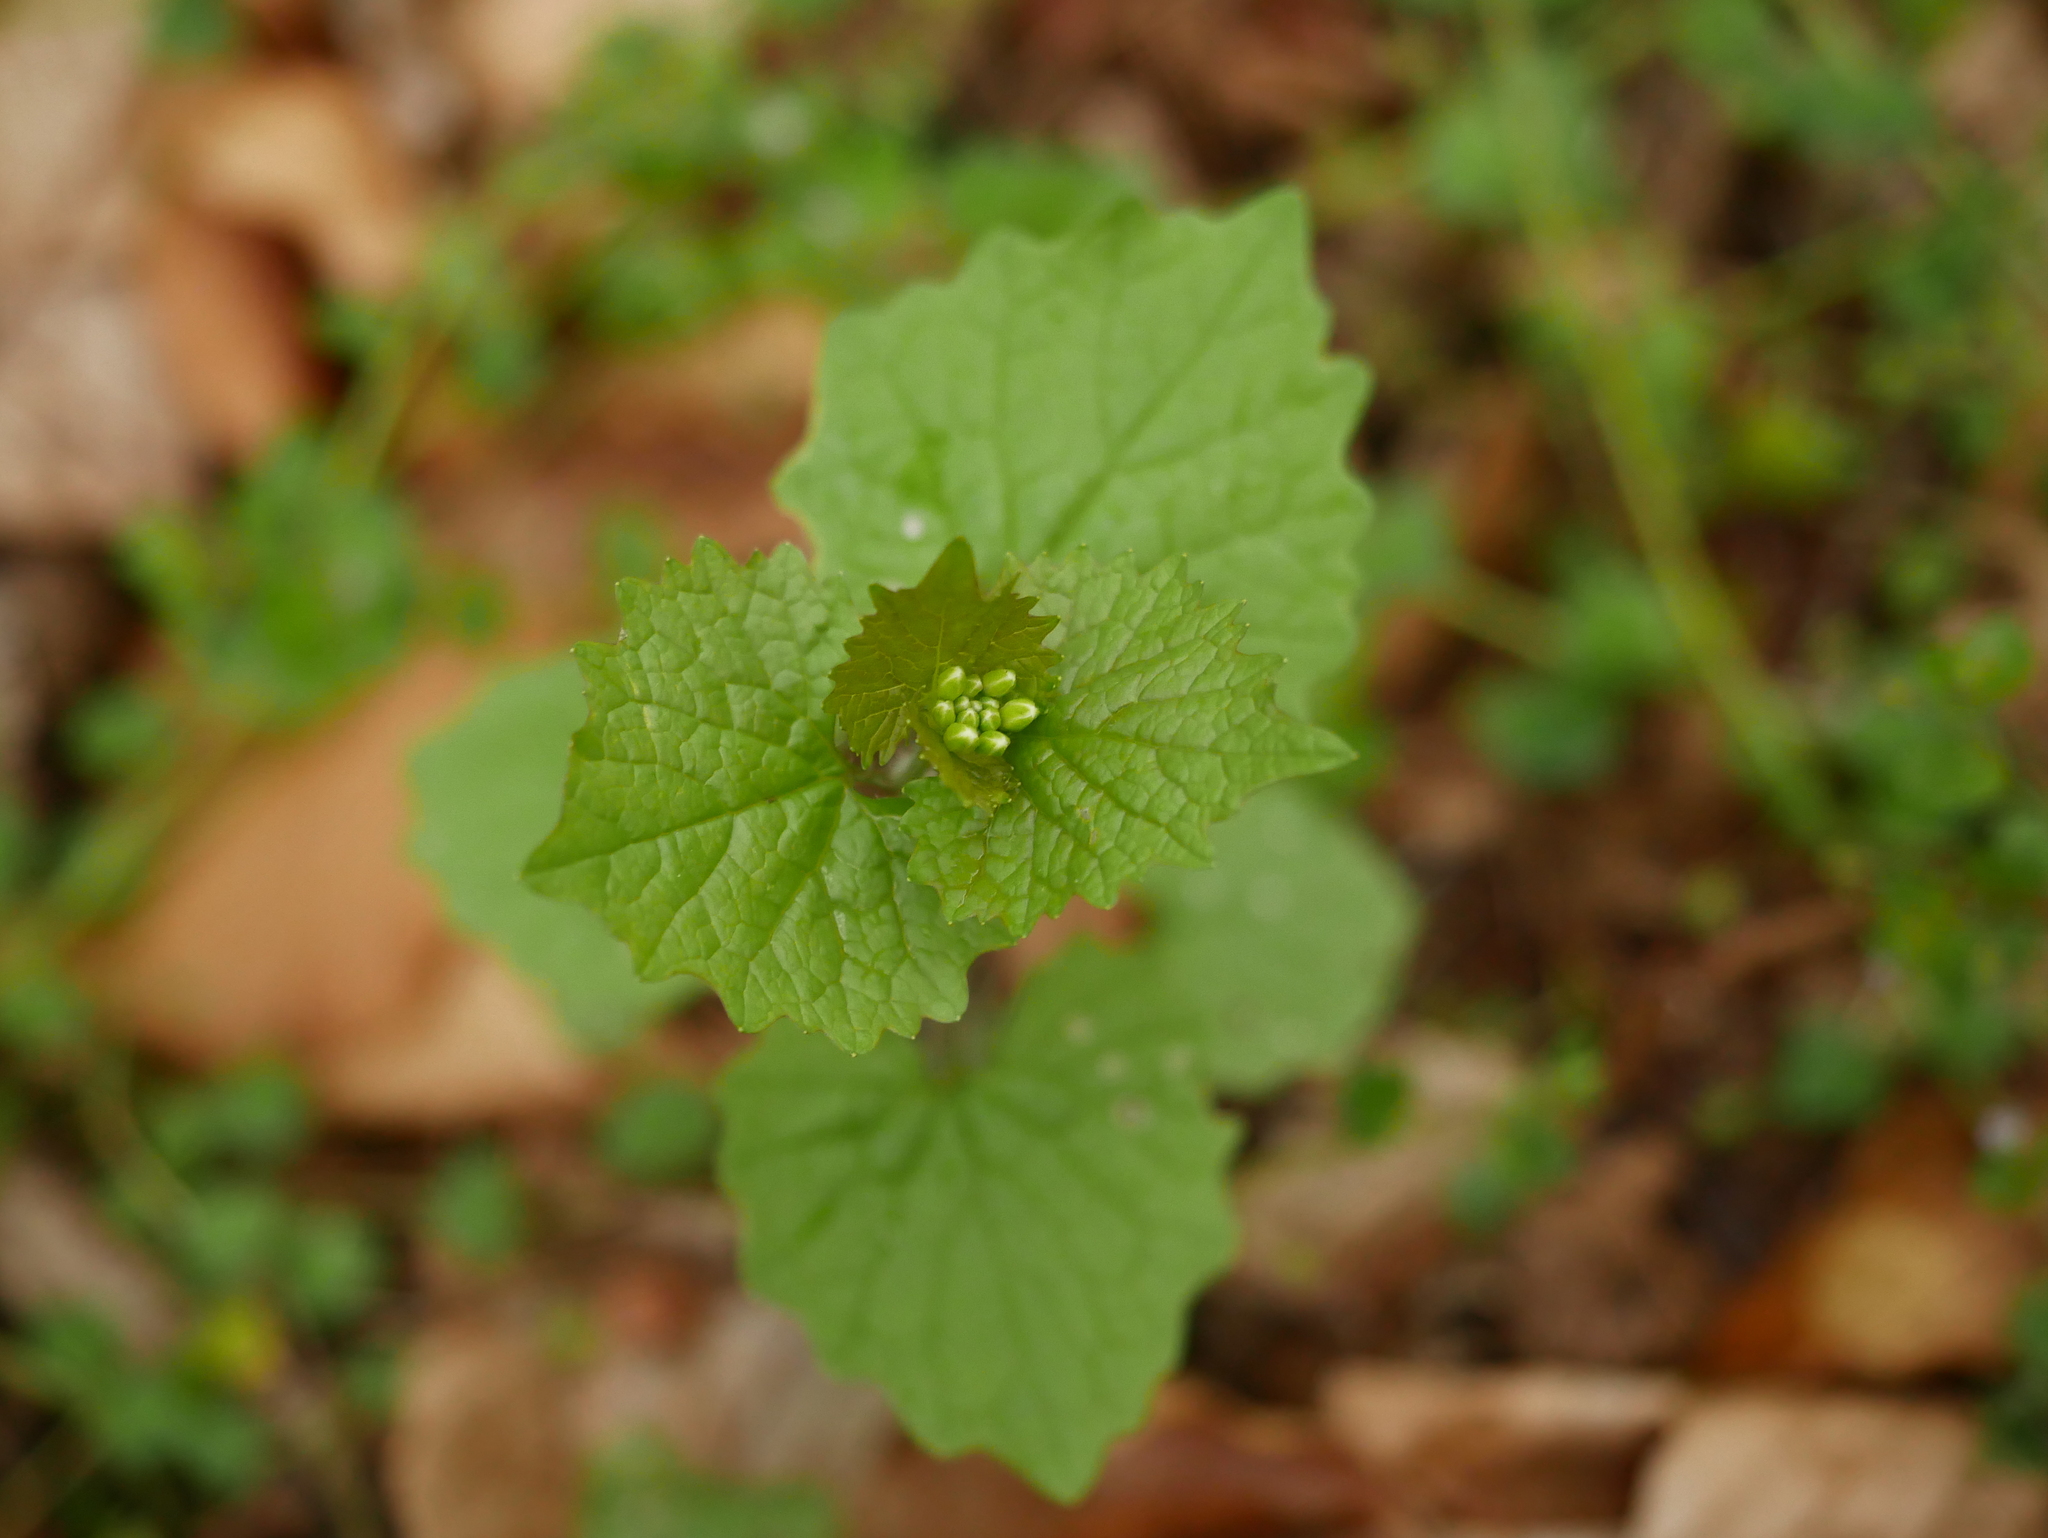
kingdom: Plantae
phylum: Tracheophyta
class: Magnoliopsida
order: Brassicales
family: Brassicaceae
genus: Alliaria
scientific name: Alliaria petiolata
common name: Garlic mustard
